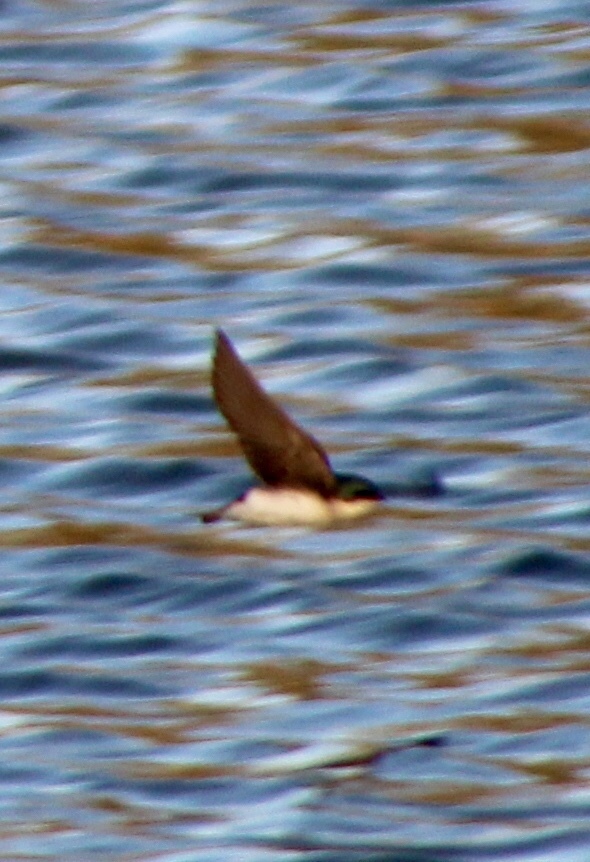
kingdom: Animalia
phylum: Chordata
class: Aves
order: Passeriformes
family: Hirundinidae
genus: Tachycineta
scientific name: Tachycineta bicolor
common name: Tree swallow
